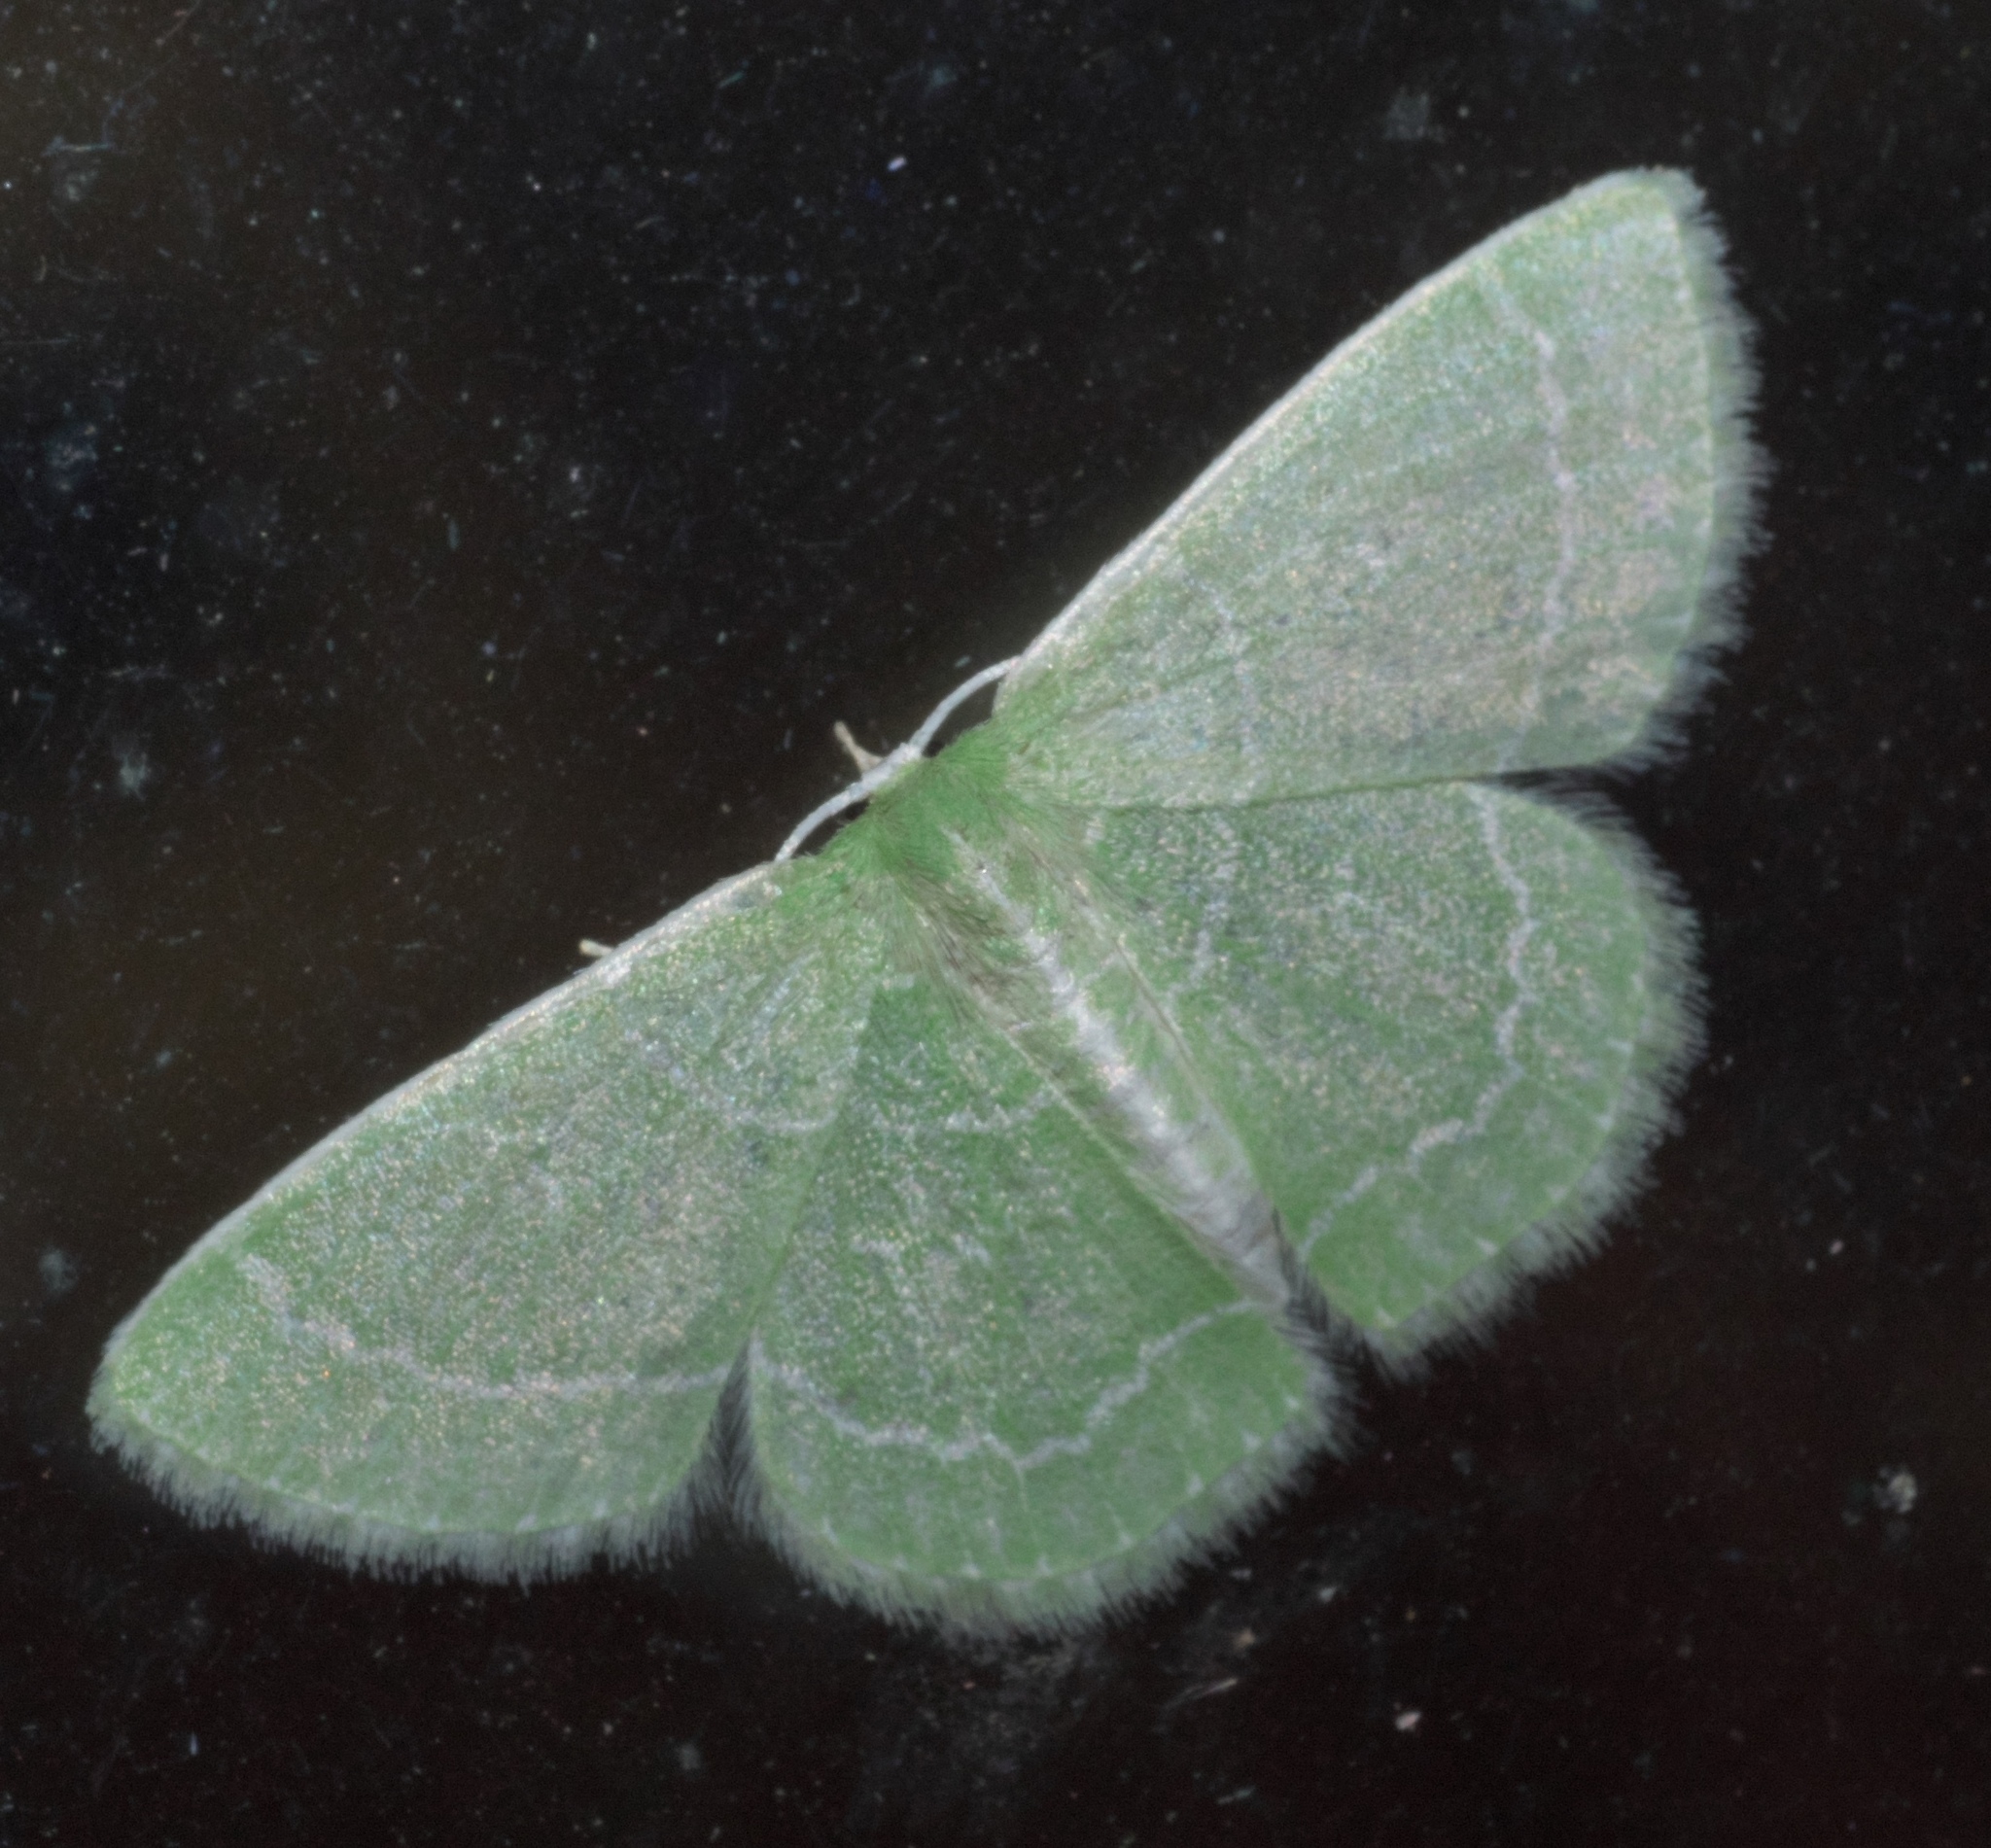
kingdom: Animalia
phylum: Arthropoda
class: Insecta
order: Lepidoptera
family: Geometridae
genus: Synchlora
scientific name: Synchlora aerata
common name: Wavy-lined emerald
